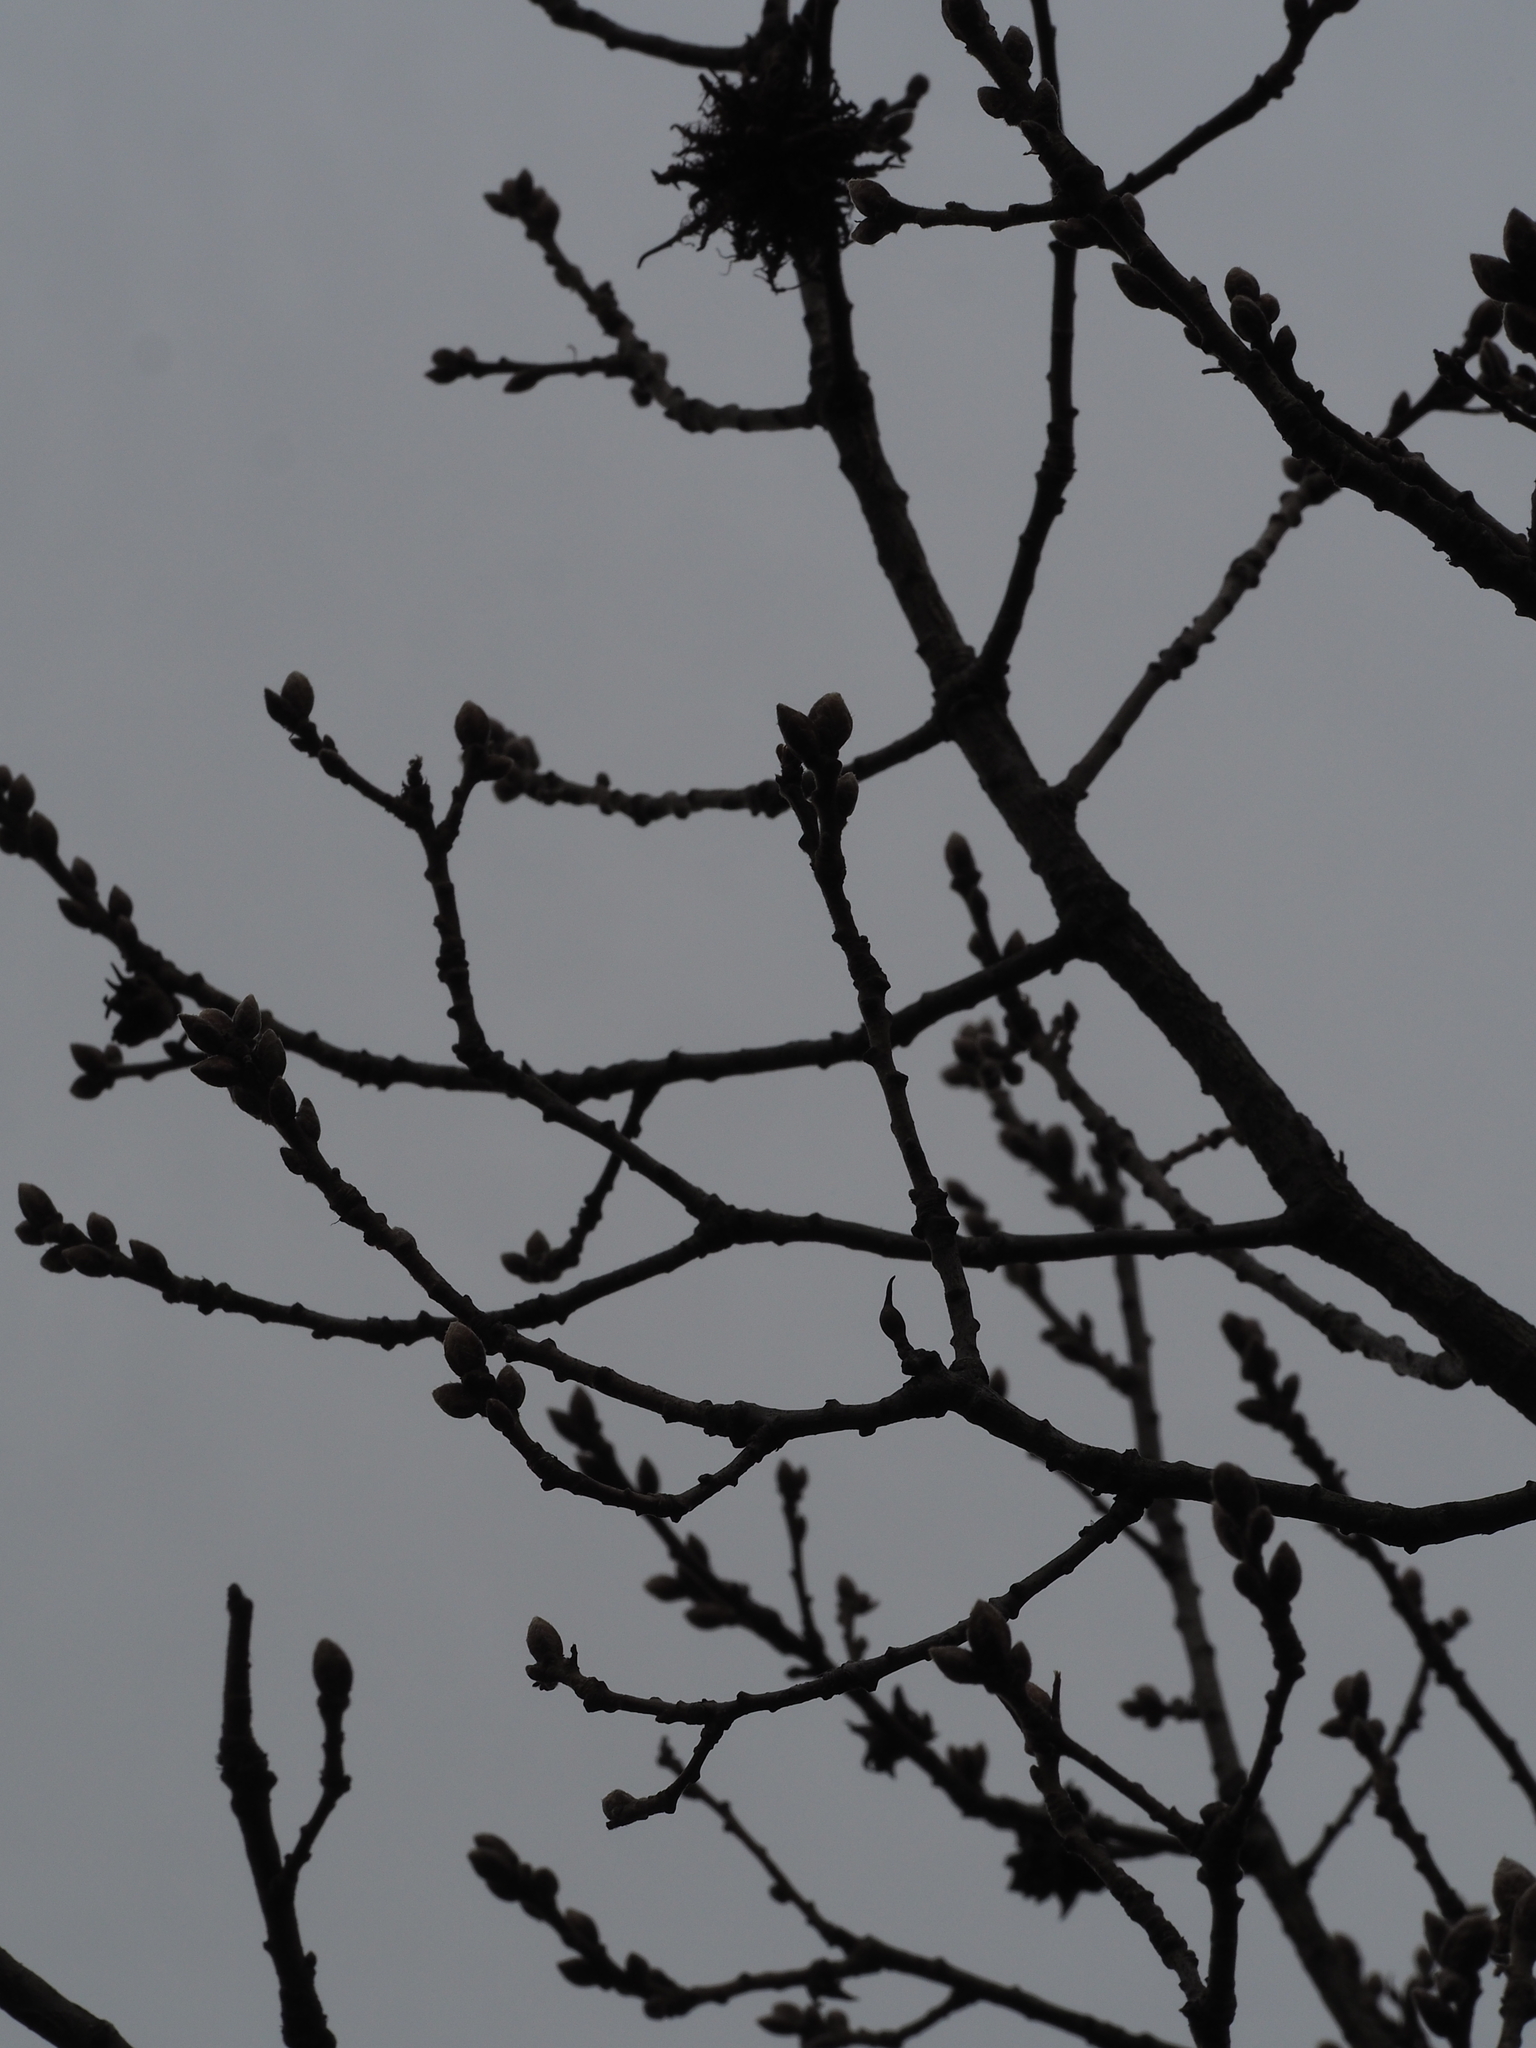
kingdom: Animalia
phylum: Arthropoda
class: Insecta
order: Hymenoptera
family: Cynipidae
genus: Andricus
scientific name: Andricus solitarius
